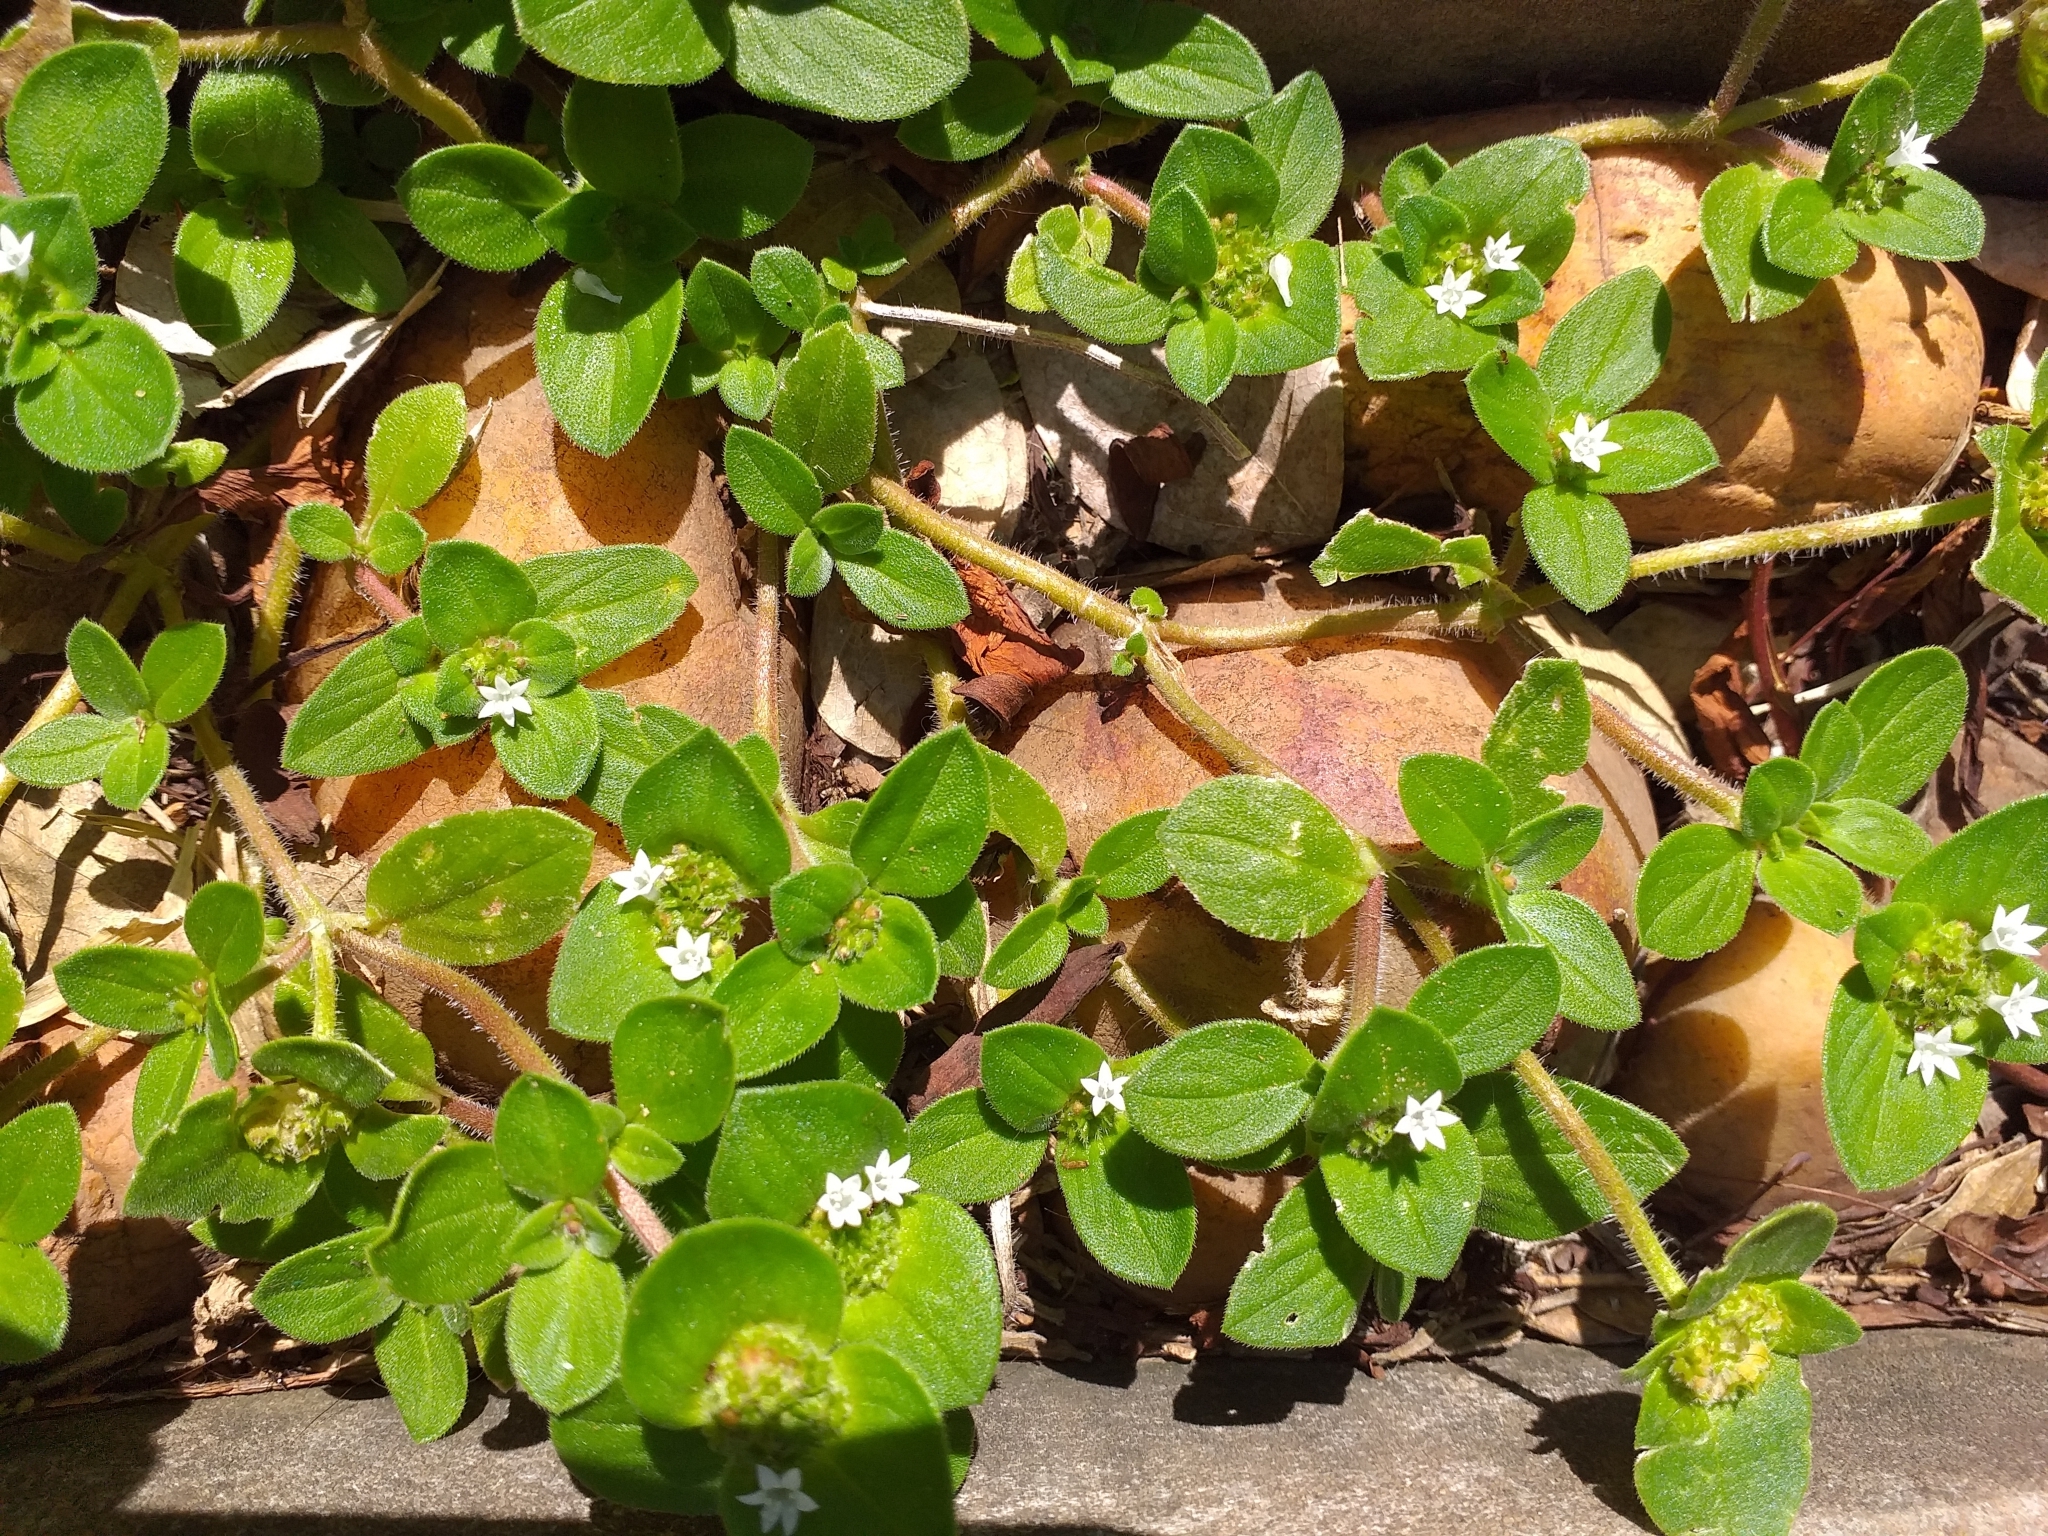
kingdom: Plantae
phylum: Tracheophyta
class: Magnoliopsida
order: Gentianales
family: Rubiaceae
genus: Richardia
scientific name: Richardia brasiliensis
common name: Tropical mexican clover
